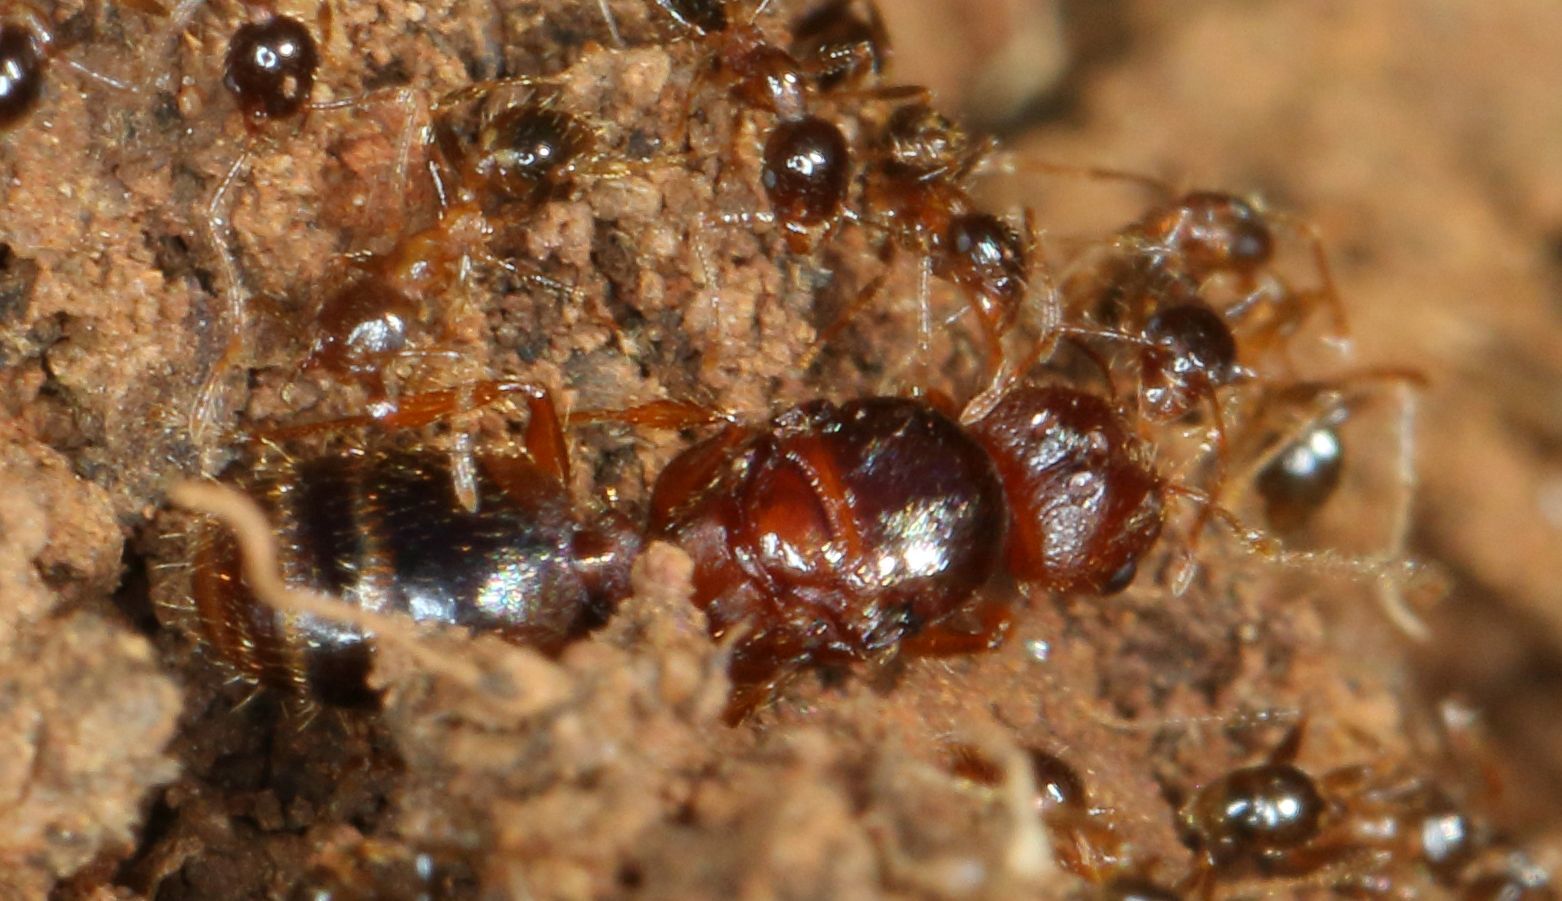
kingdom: Animalia
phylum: Arthropoda
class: Insecta
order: Hymenoptera
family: Formicidae
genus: Pheidole
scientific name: Pheidole megacephala
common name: Bigheaded ant
